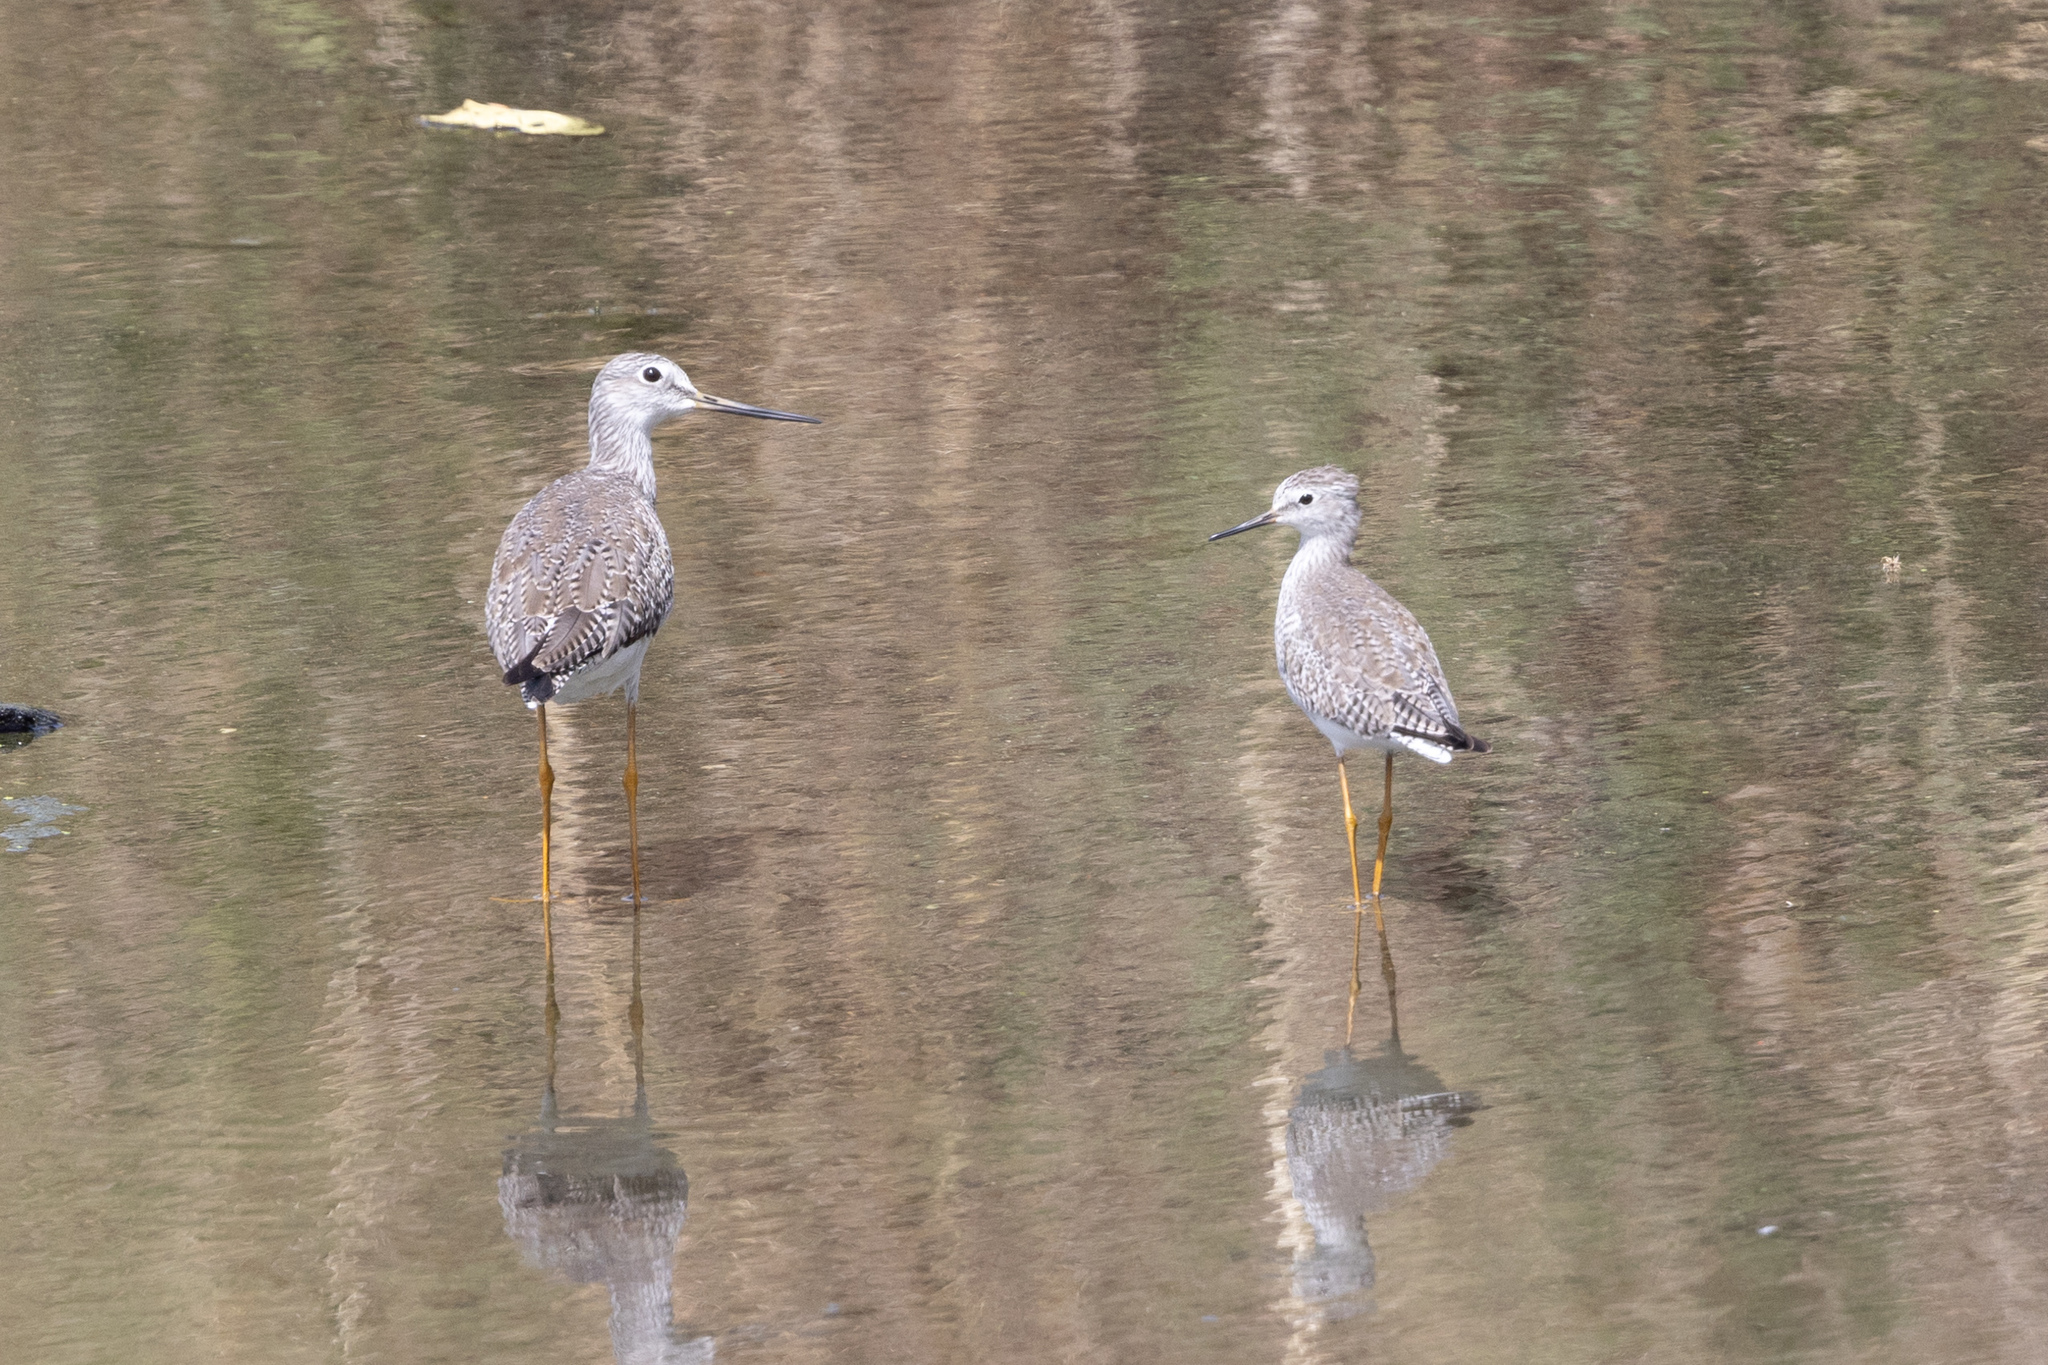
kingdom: Animalia
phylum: Chordata
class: Aves
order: Charadriiformes
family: Scolopacidae
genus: Tringa
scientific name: Tringa flavipes
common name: Lesser yellowlegs
